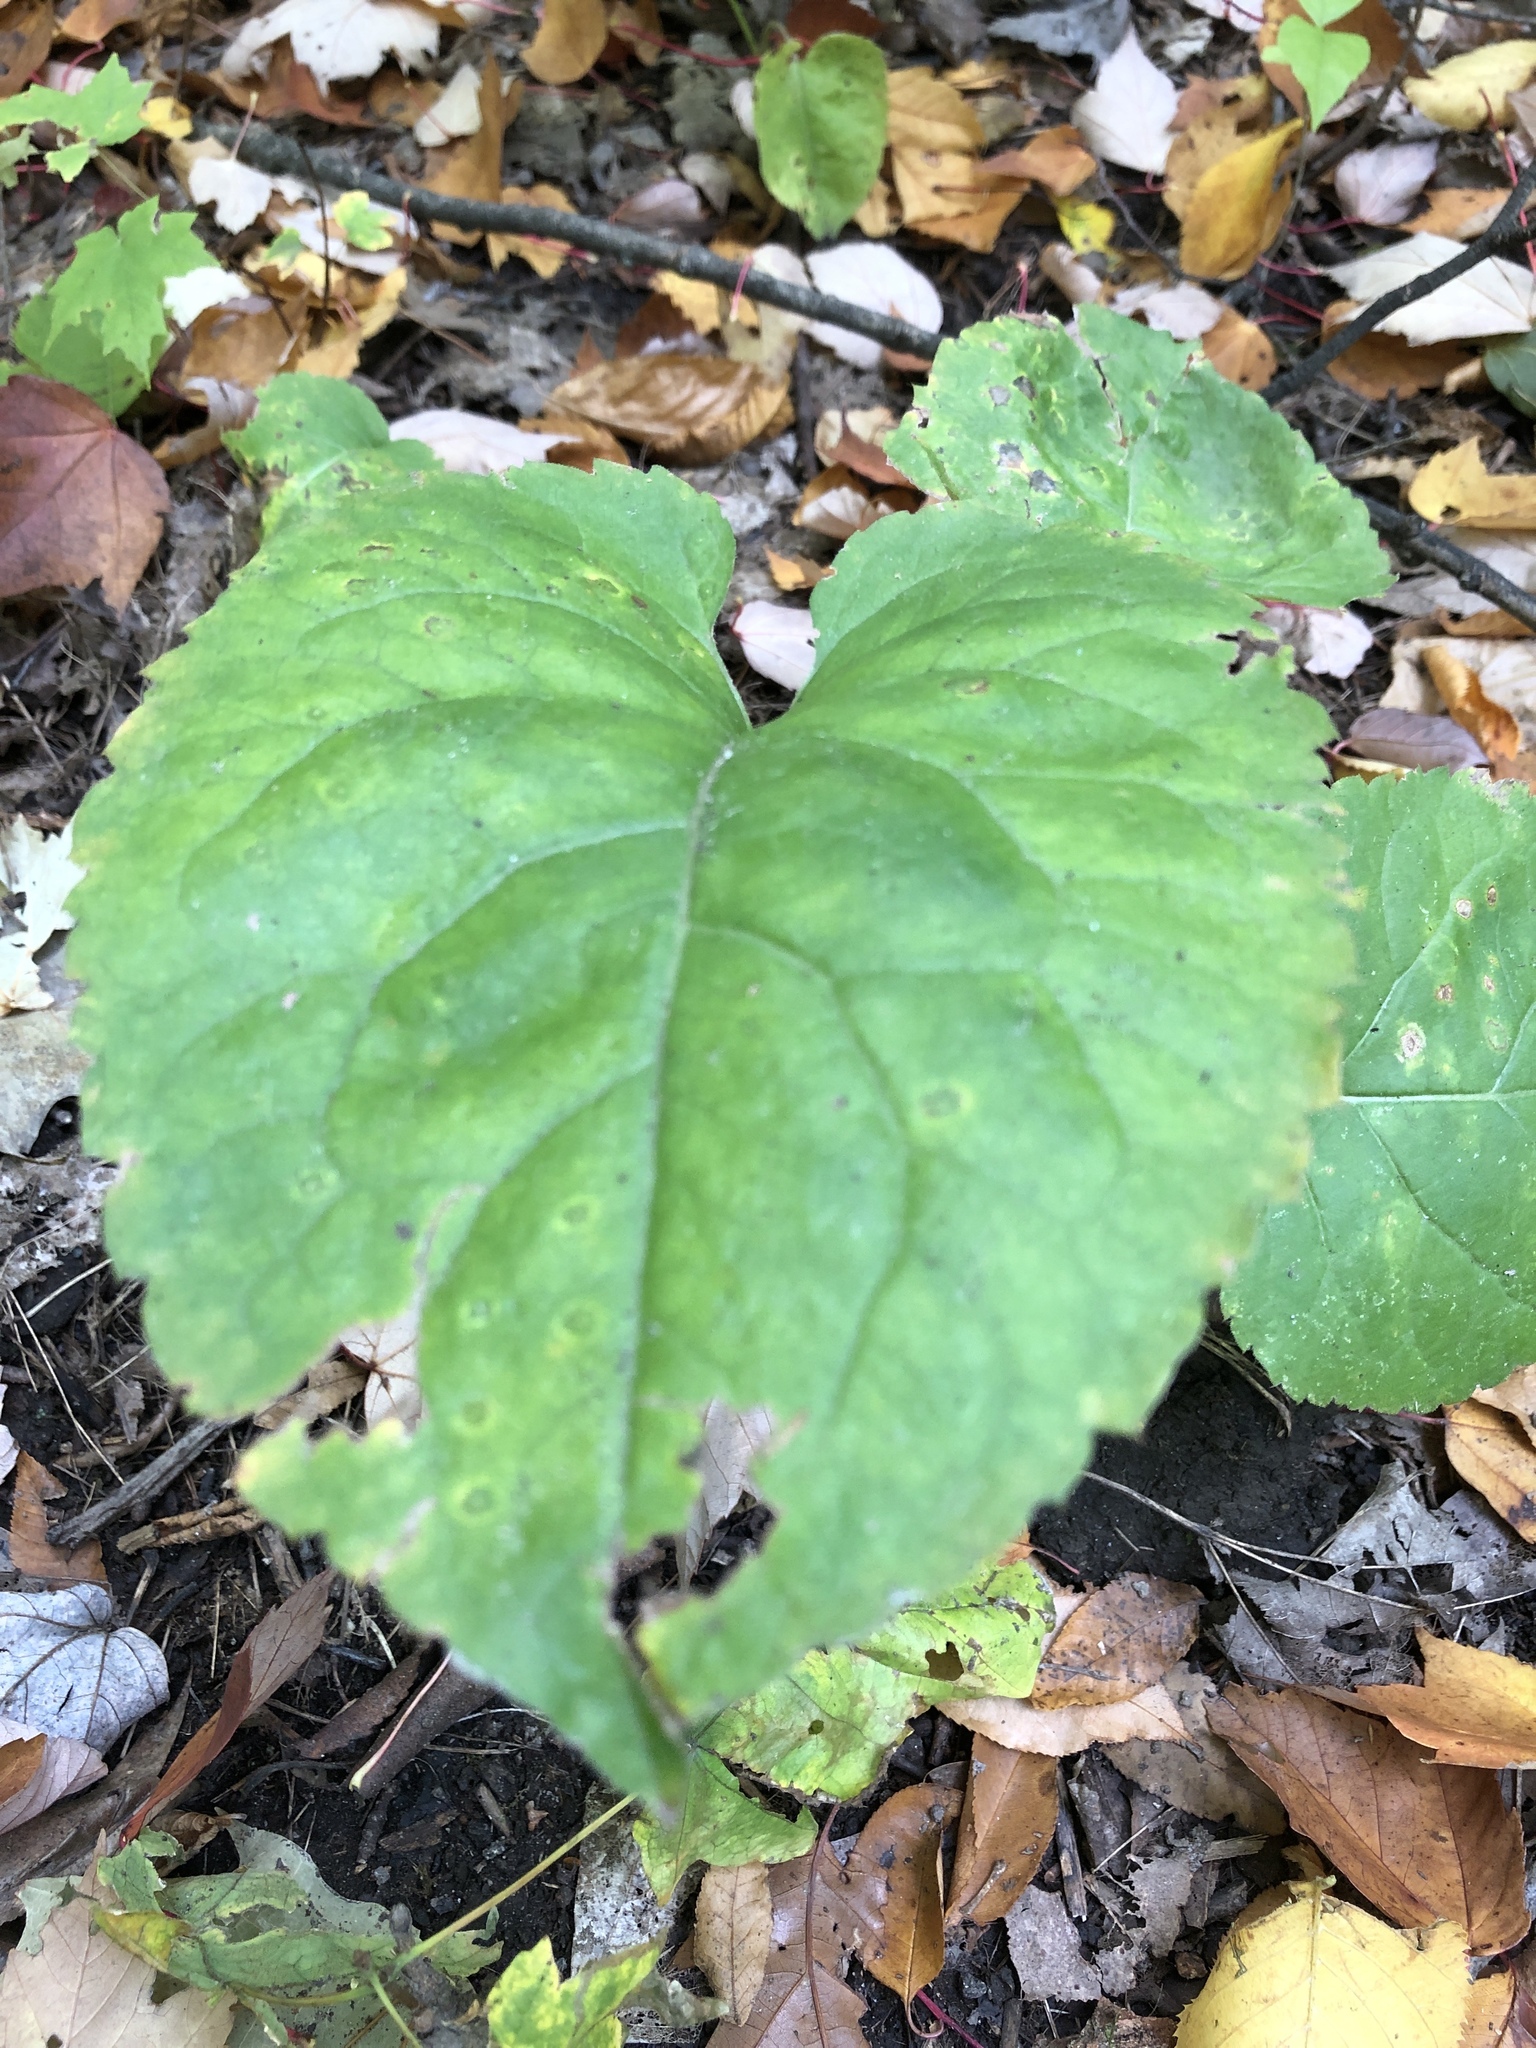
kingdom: Plantae
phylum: Tracheophyta
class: Magnoliopsida
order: Asterales
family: Asteraceae
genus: Eurybia
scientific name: Eurybia macrophylla
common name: Big-leaved aster
